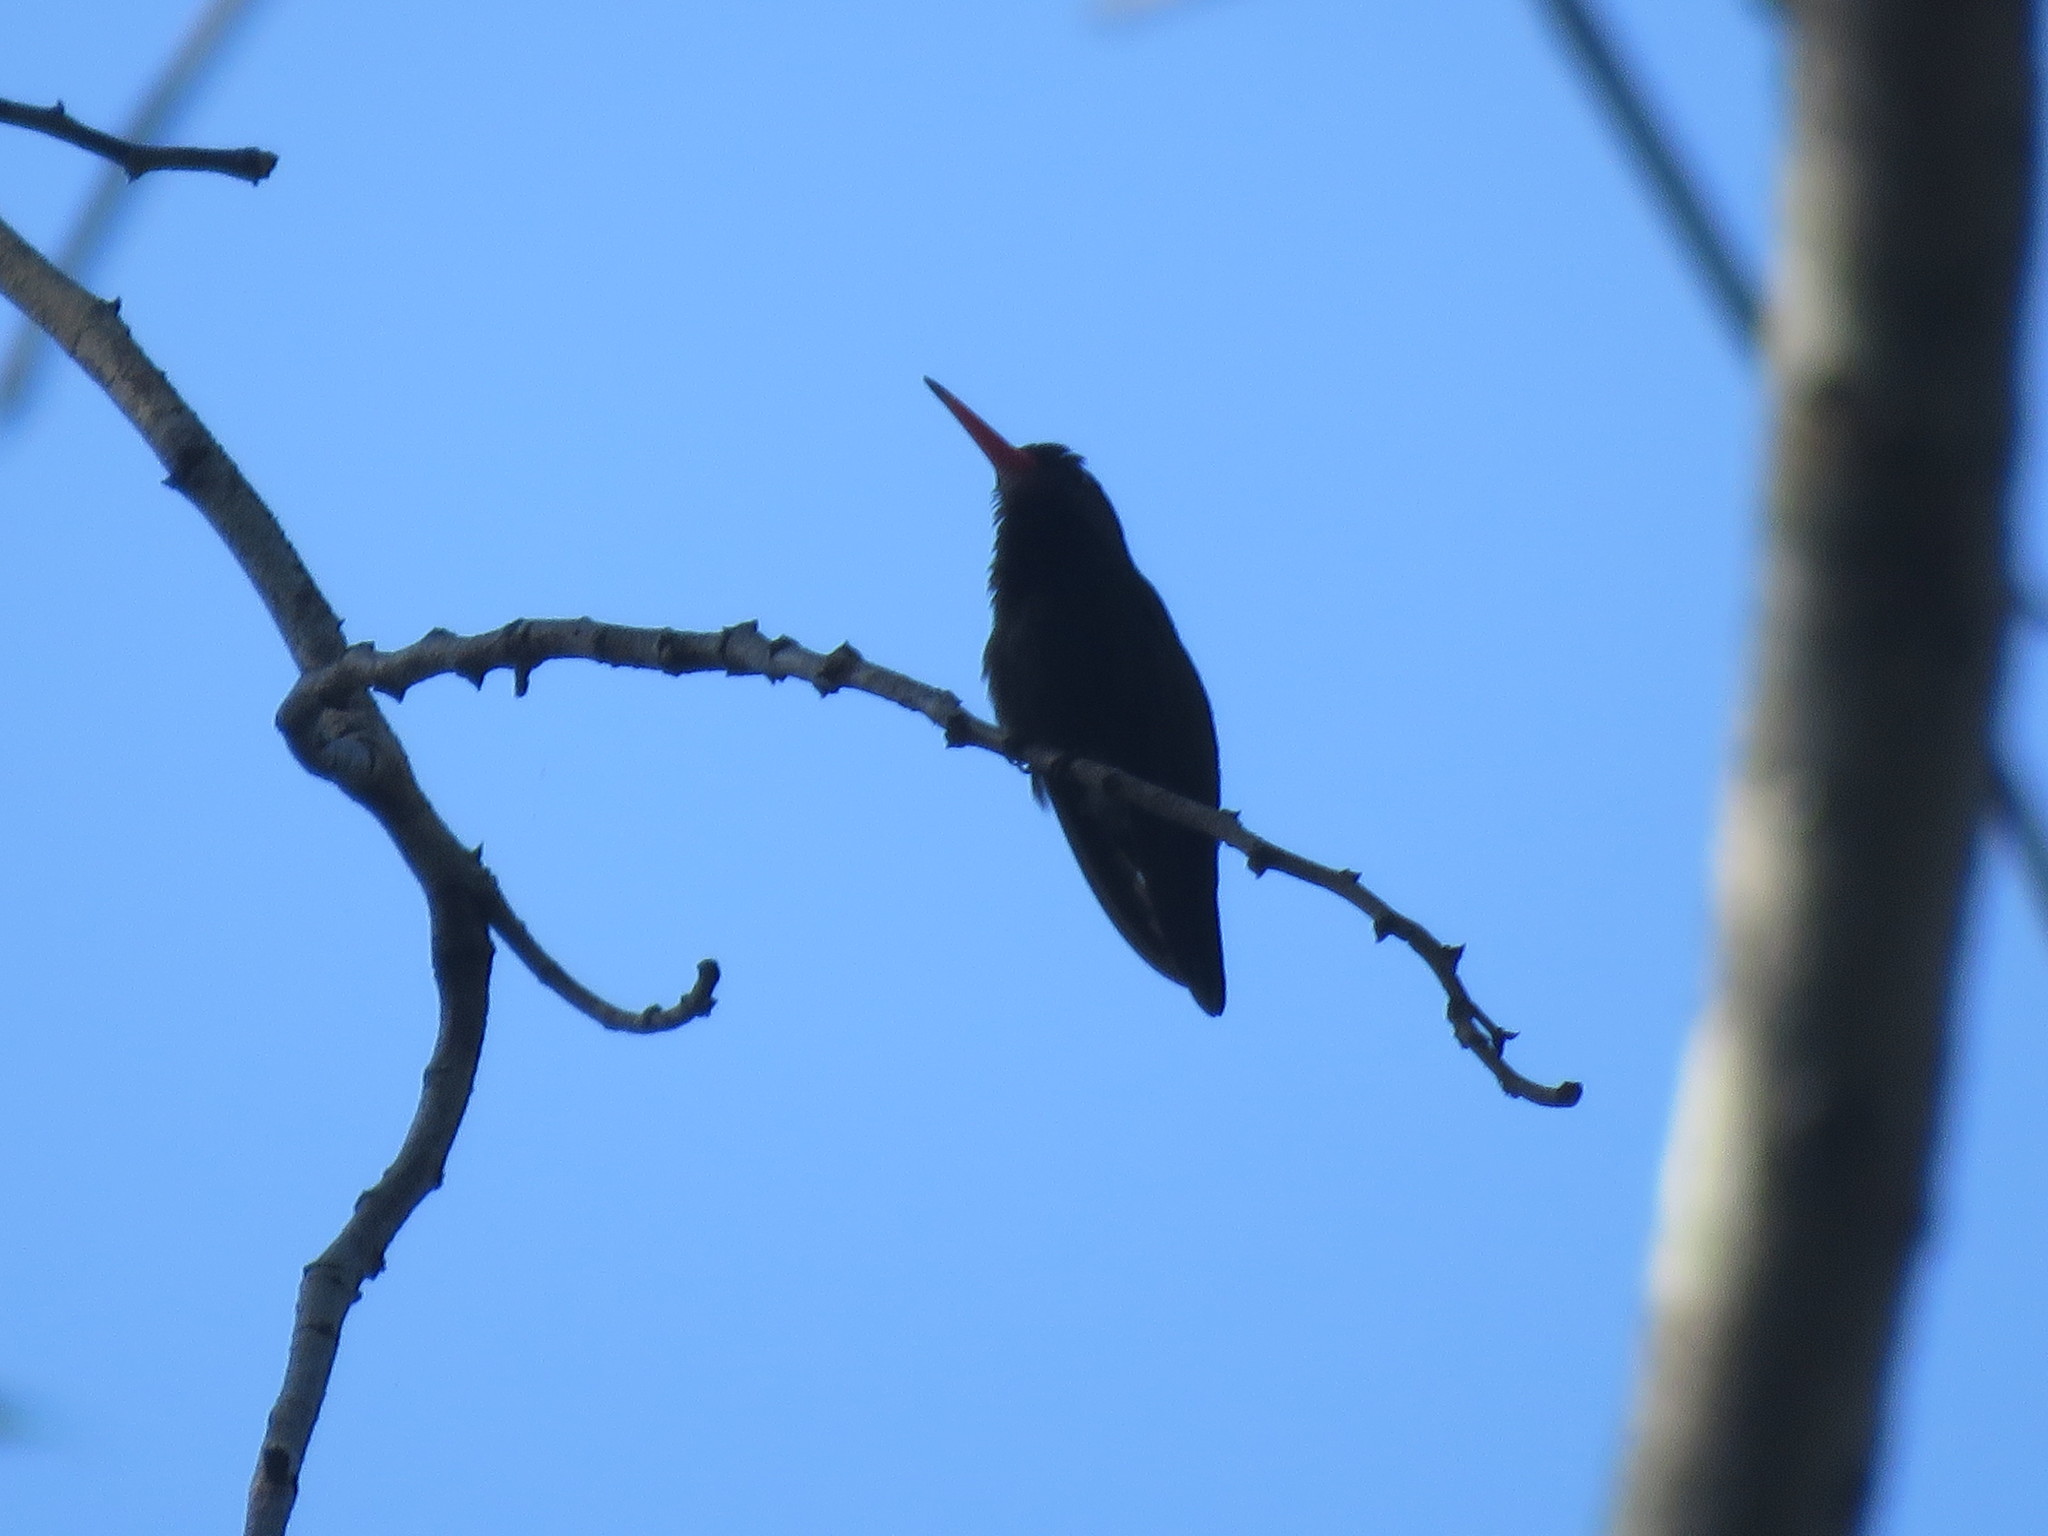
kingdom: Animalia
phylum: Chordata
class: Aves
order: Apodiformes
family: Trochilidae
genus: Chlorestes
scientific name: Chlorestes cyanus
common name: White-chinned sapphire
